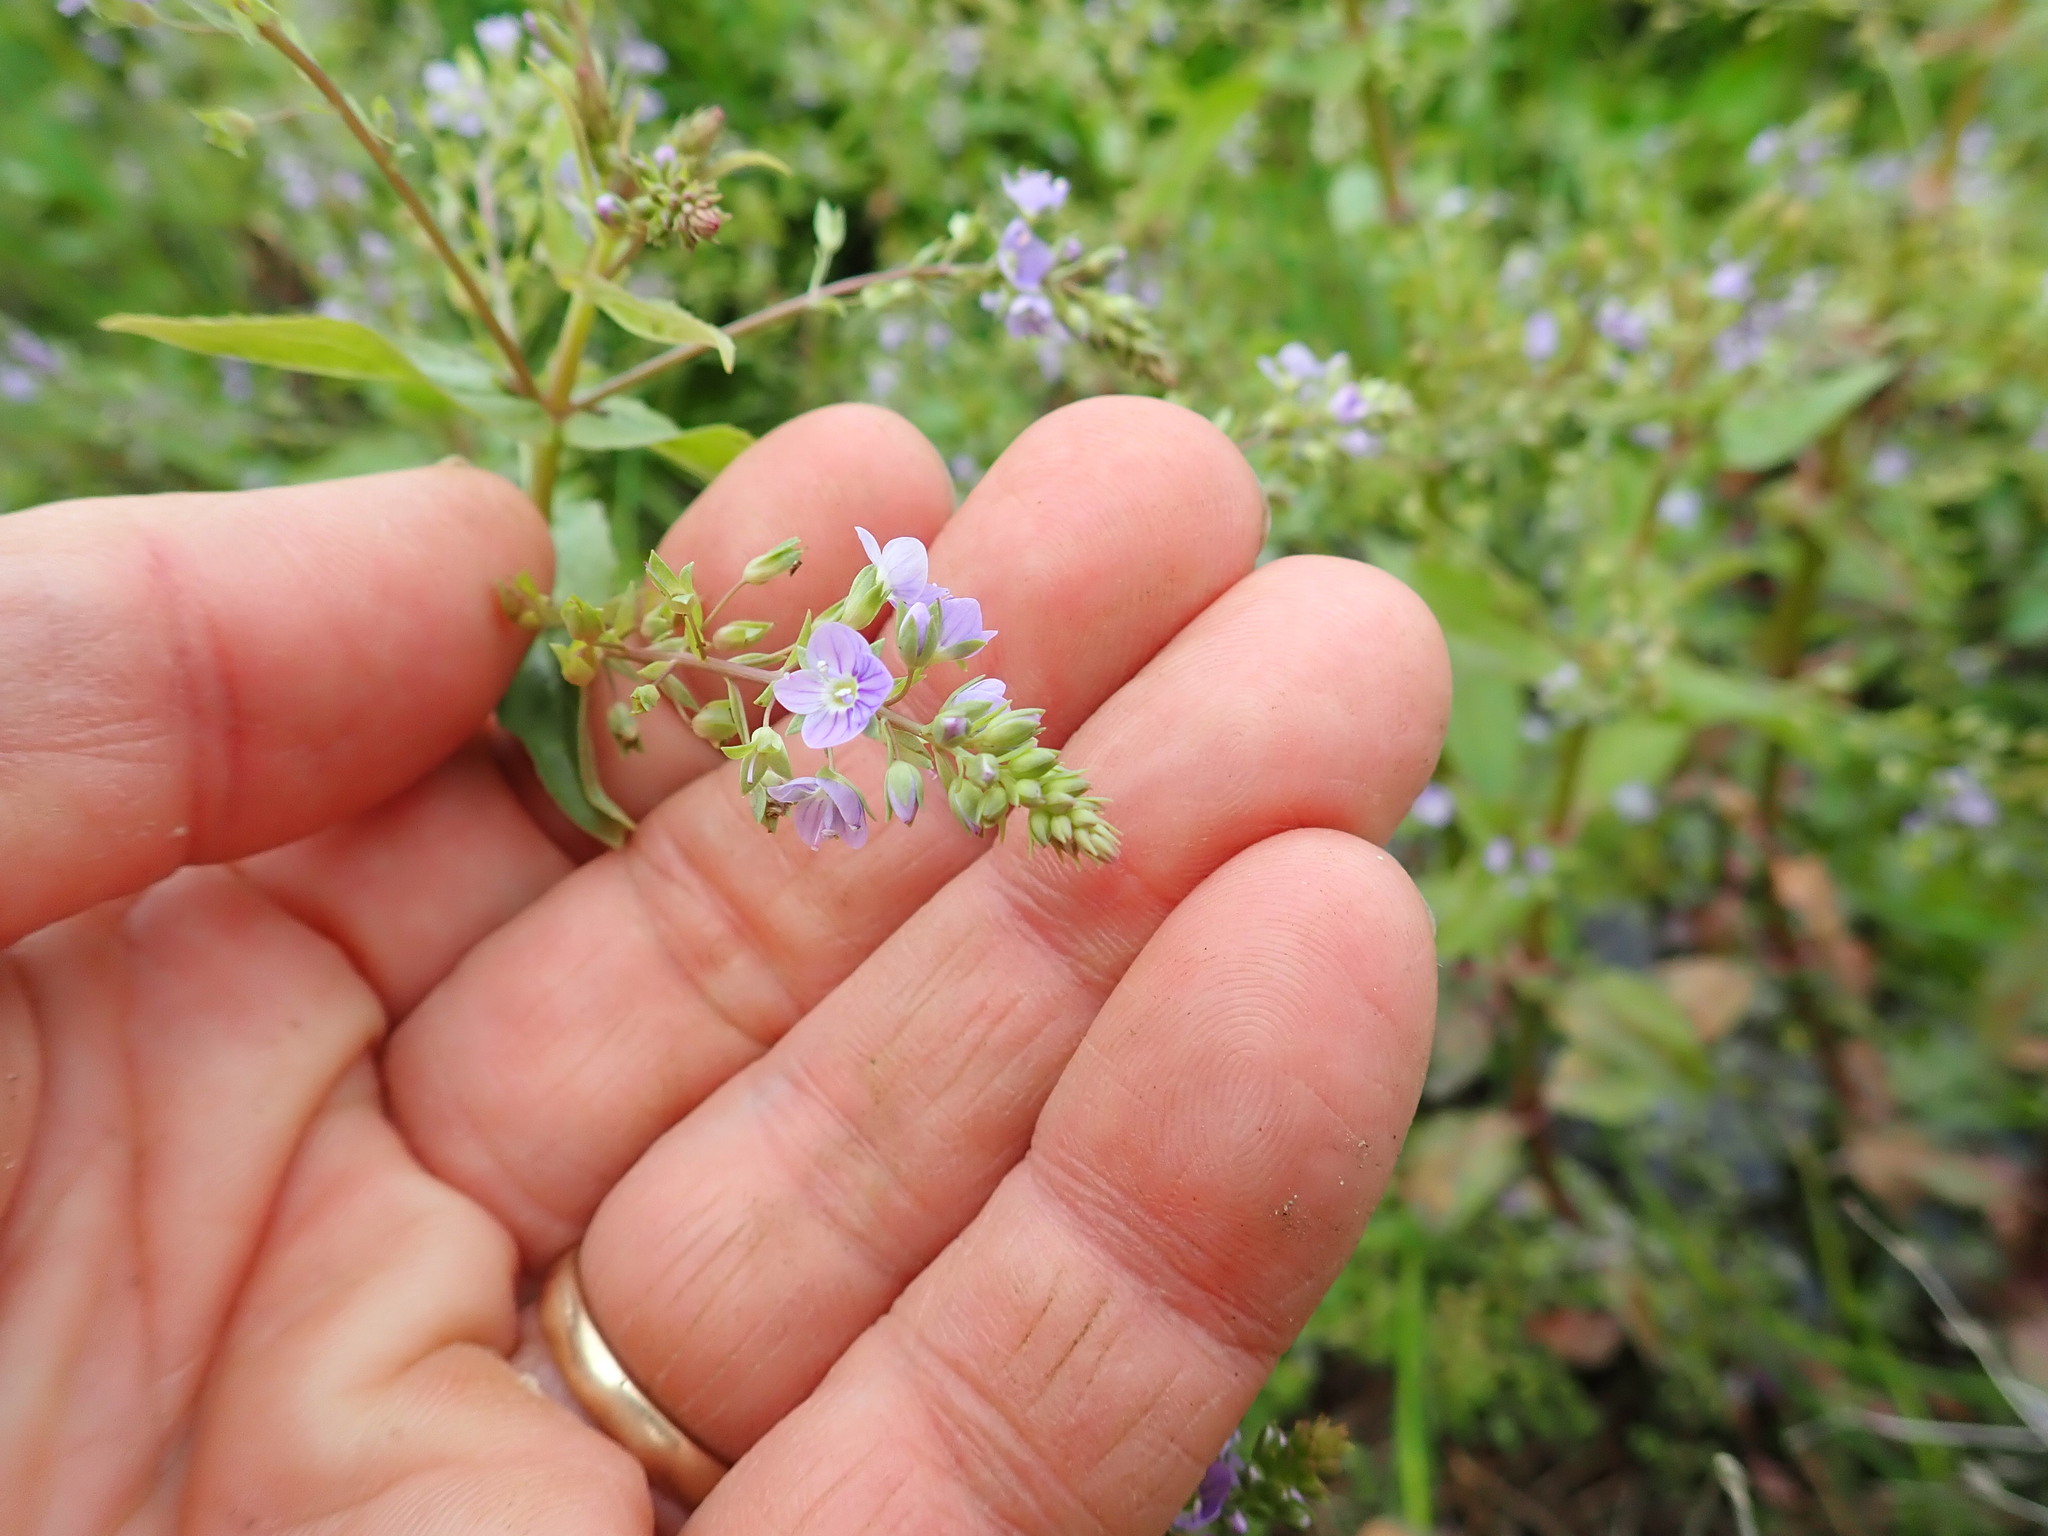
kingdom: Plantae
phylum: Tracheophyta
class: Magnoliopsida
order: Lamiales
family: Plantaginaceae
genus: Veronica
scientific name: Veronica anagallis-aquatica
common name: Water speedwell
